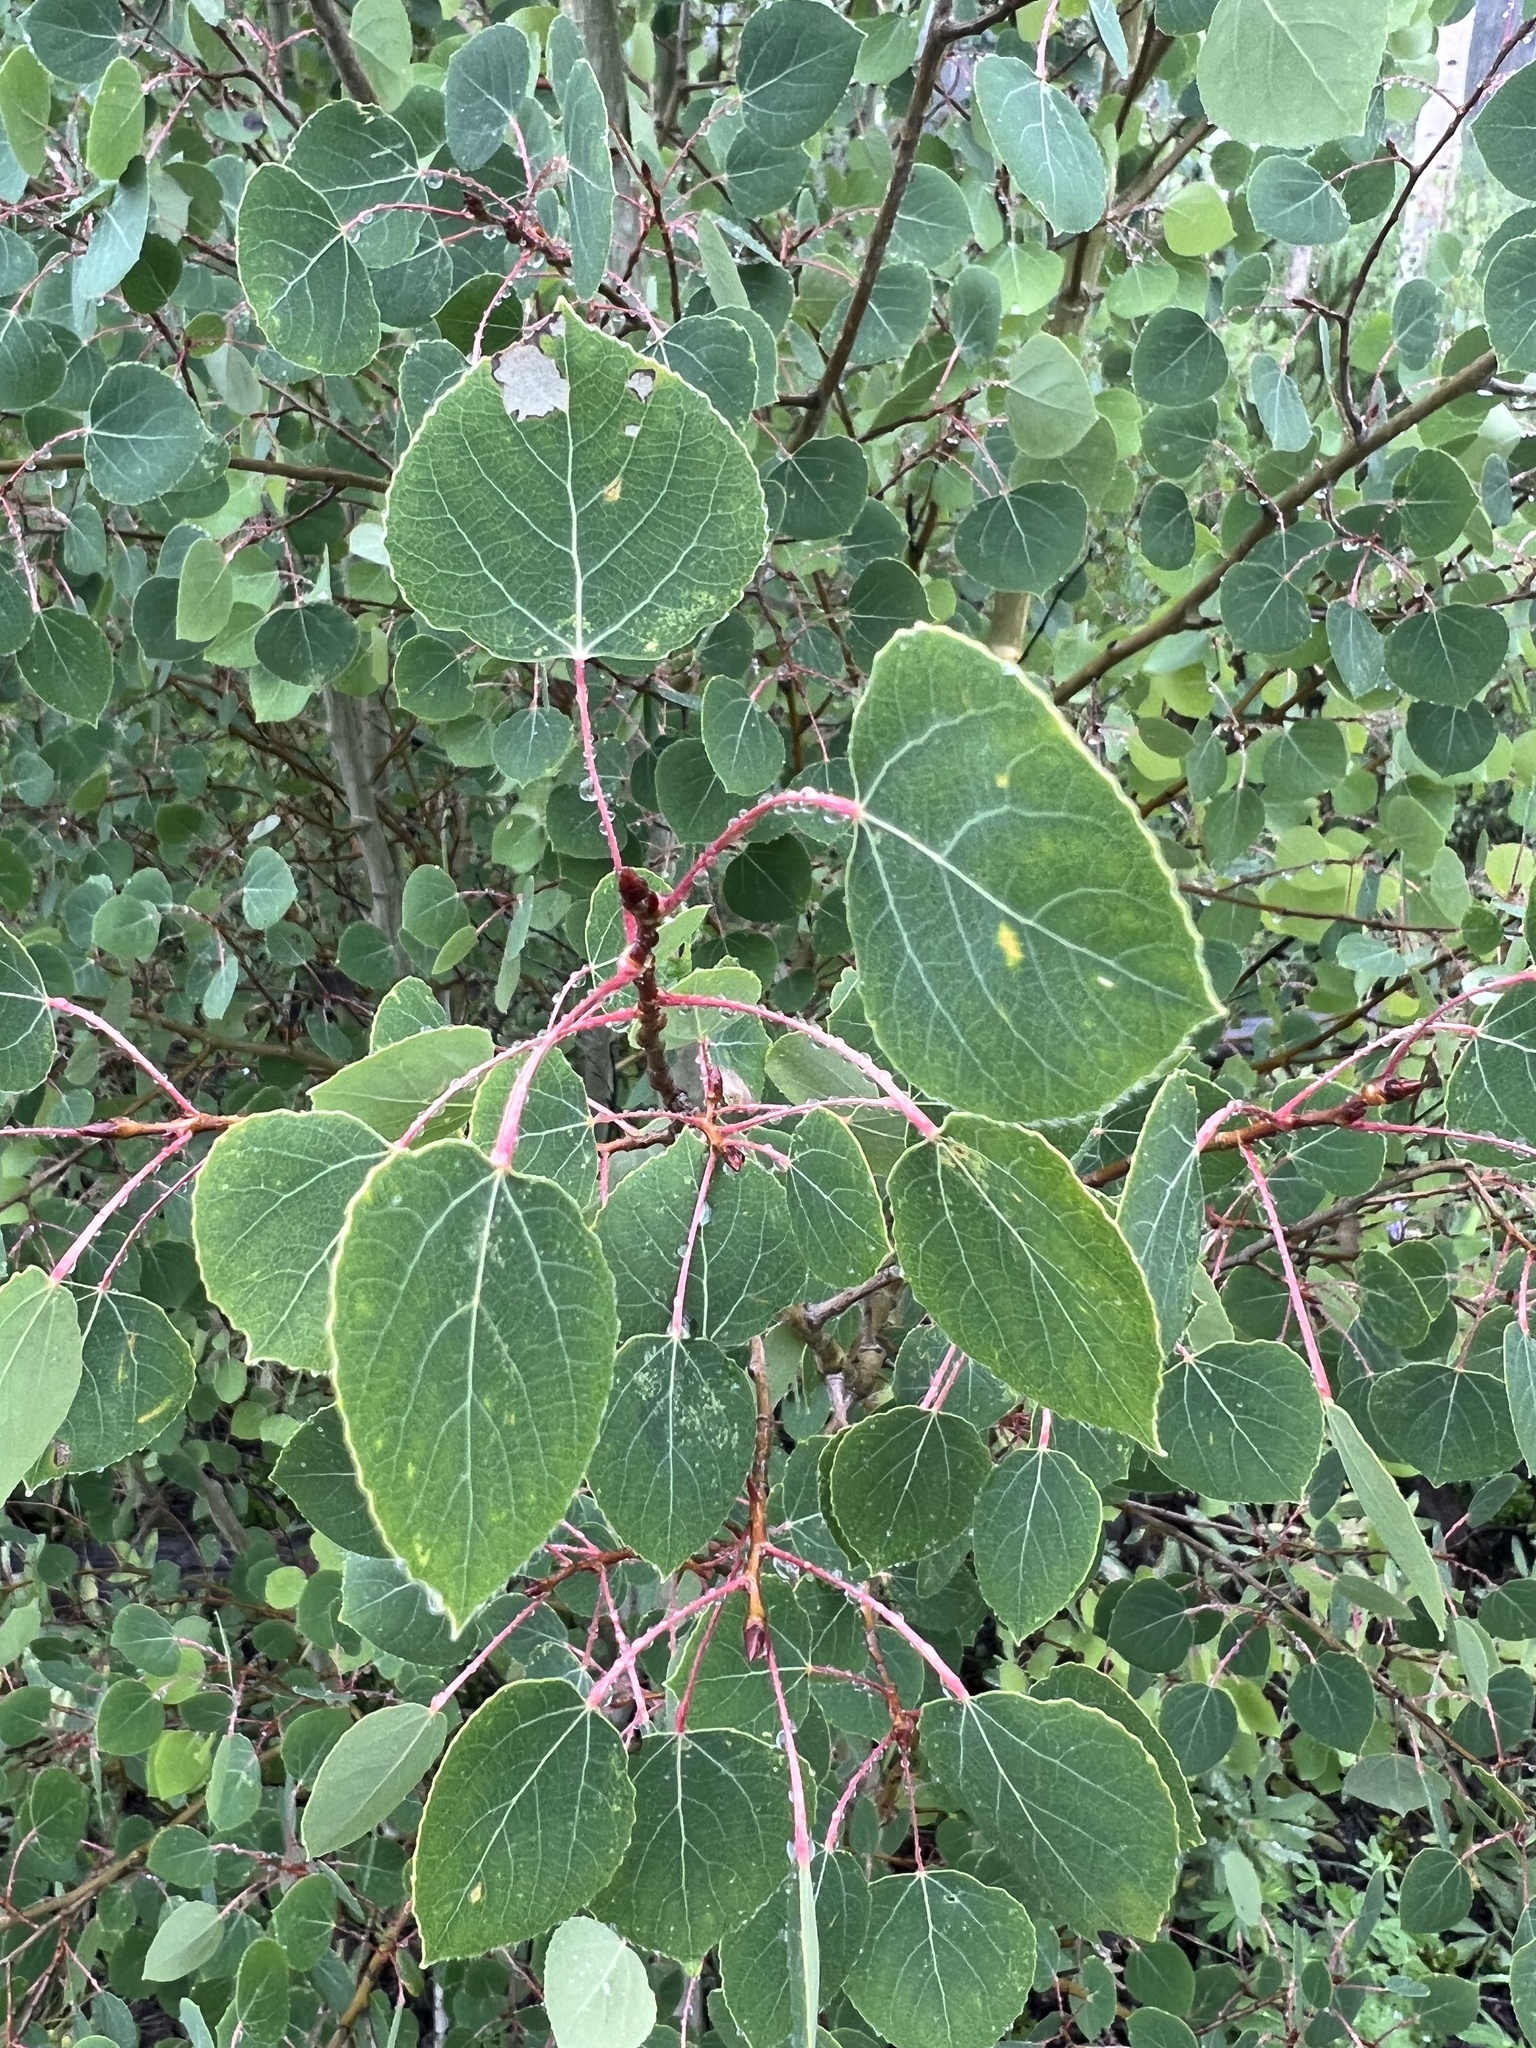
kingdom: Plantae
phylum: Tracheophyta
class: Magnoliopsida
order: Malpighiales
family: Salicaceae
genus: Populus
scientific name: Populus tremuloides
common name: Quaking aspen
